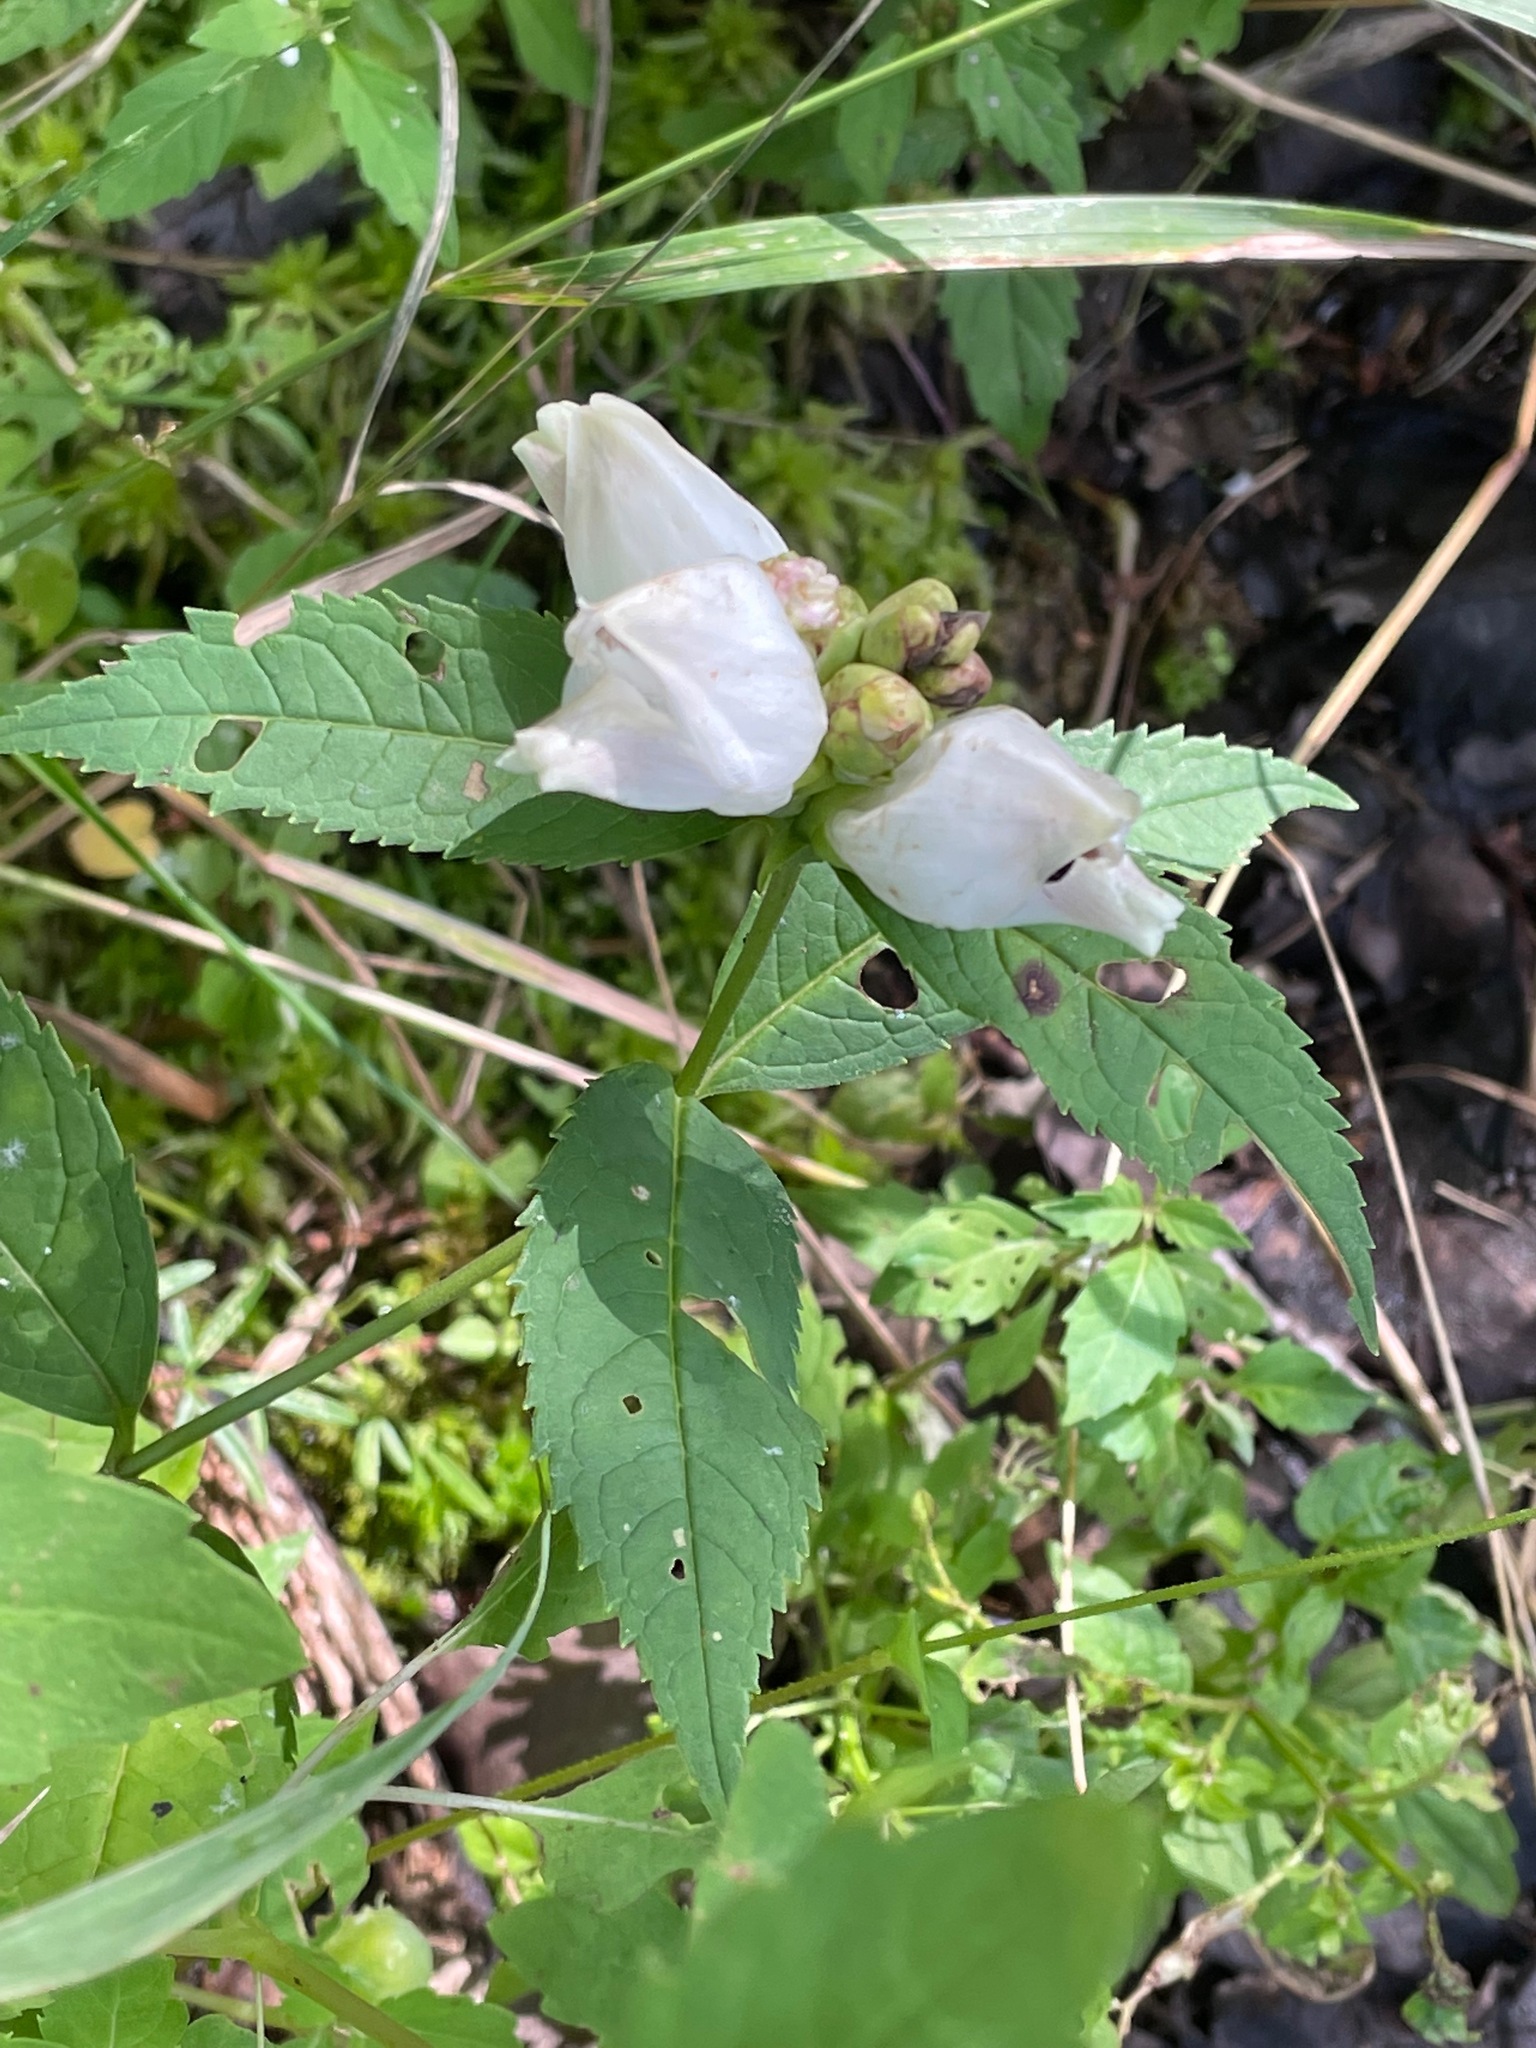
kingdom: Plantae
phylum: Tracheophyta
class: Magnoliopsida
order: Lamiales
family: Plantaginaceae
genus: Chelone
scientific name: Chelone glabra
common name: Snakehead
